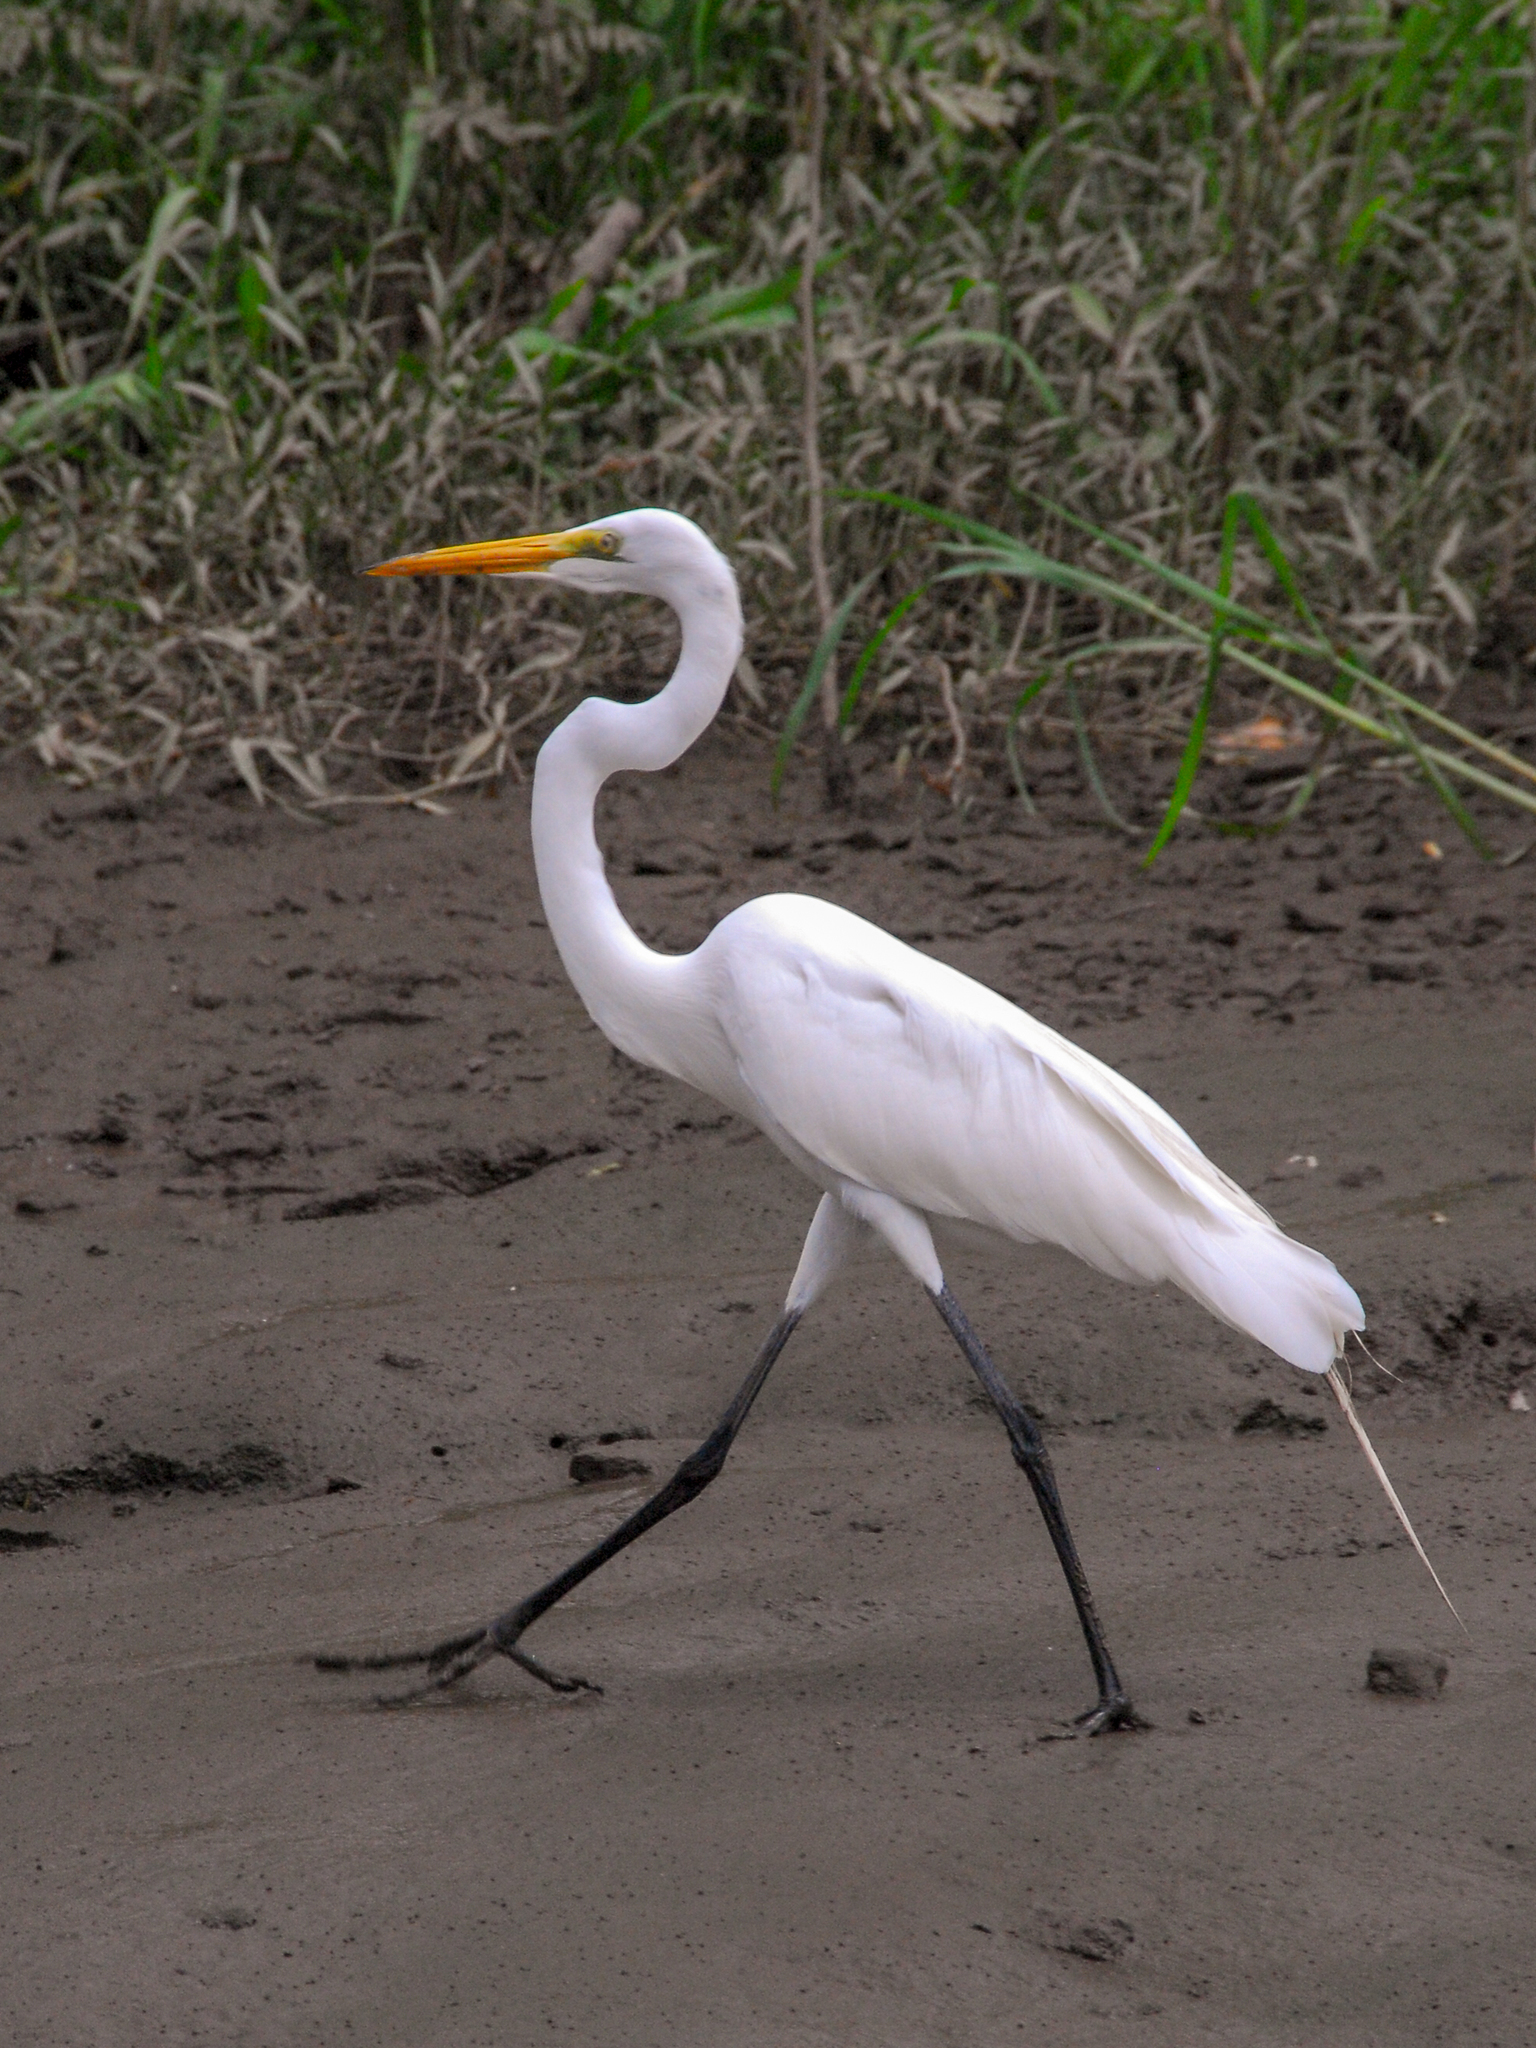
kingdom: Animalia
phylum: Chordata
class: Aves
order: Pelecaniformes
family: Ardeidae
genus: Ardea
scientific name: Ardea alba
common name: Great egret
